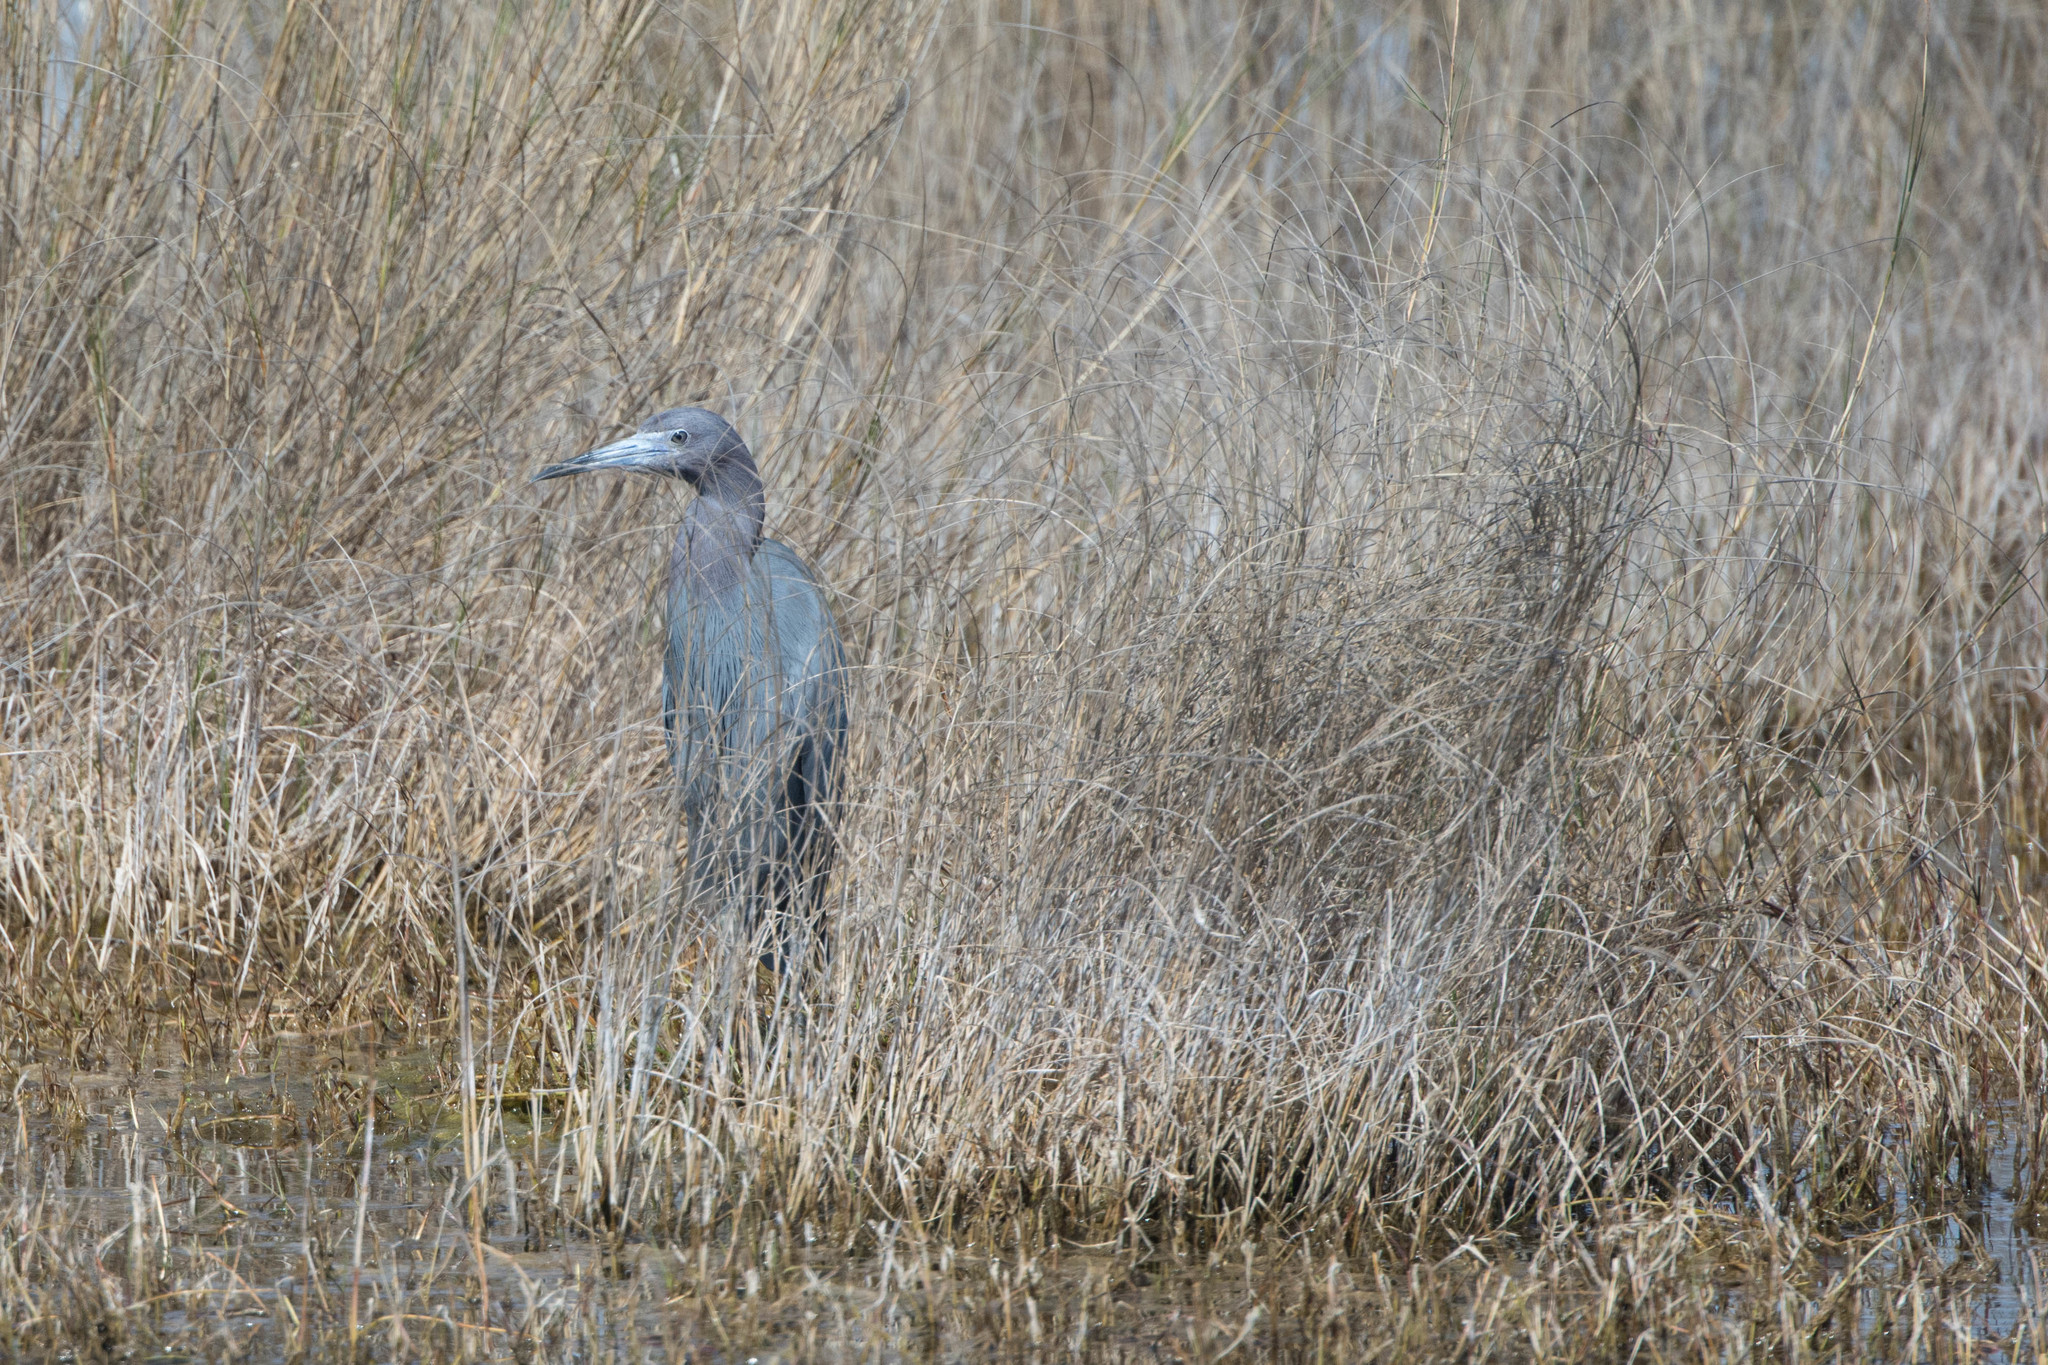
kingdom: Animalia
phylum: Chordata
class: Aves
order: Pelecaniformes
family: Ardeidae
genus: Egretta
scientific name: Egretta caerulea
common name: Little blue heron
